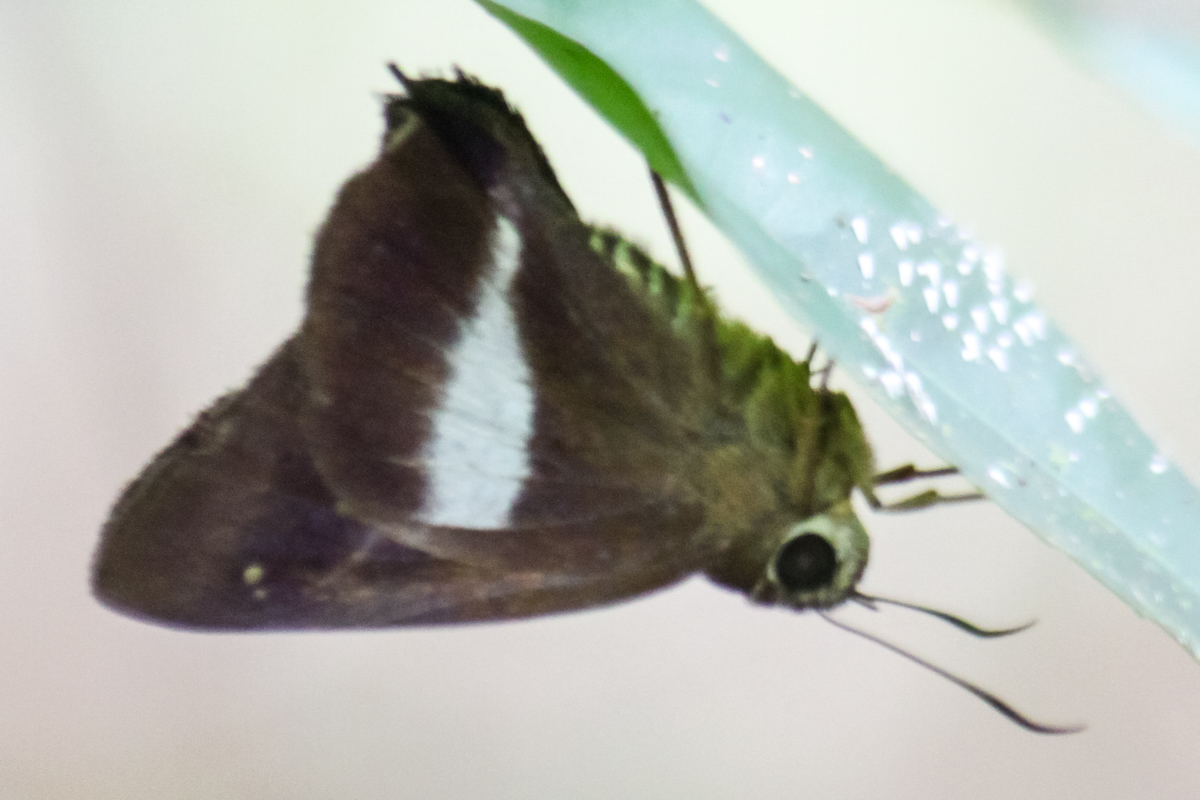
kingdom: Animalia
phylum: Arthropoda
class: Insecta
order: Lepidoptera
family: Hesperiidae
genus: Hasora
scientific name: Hasora leucospila
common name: Violet awl
